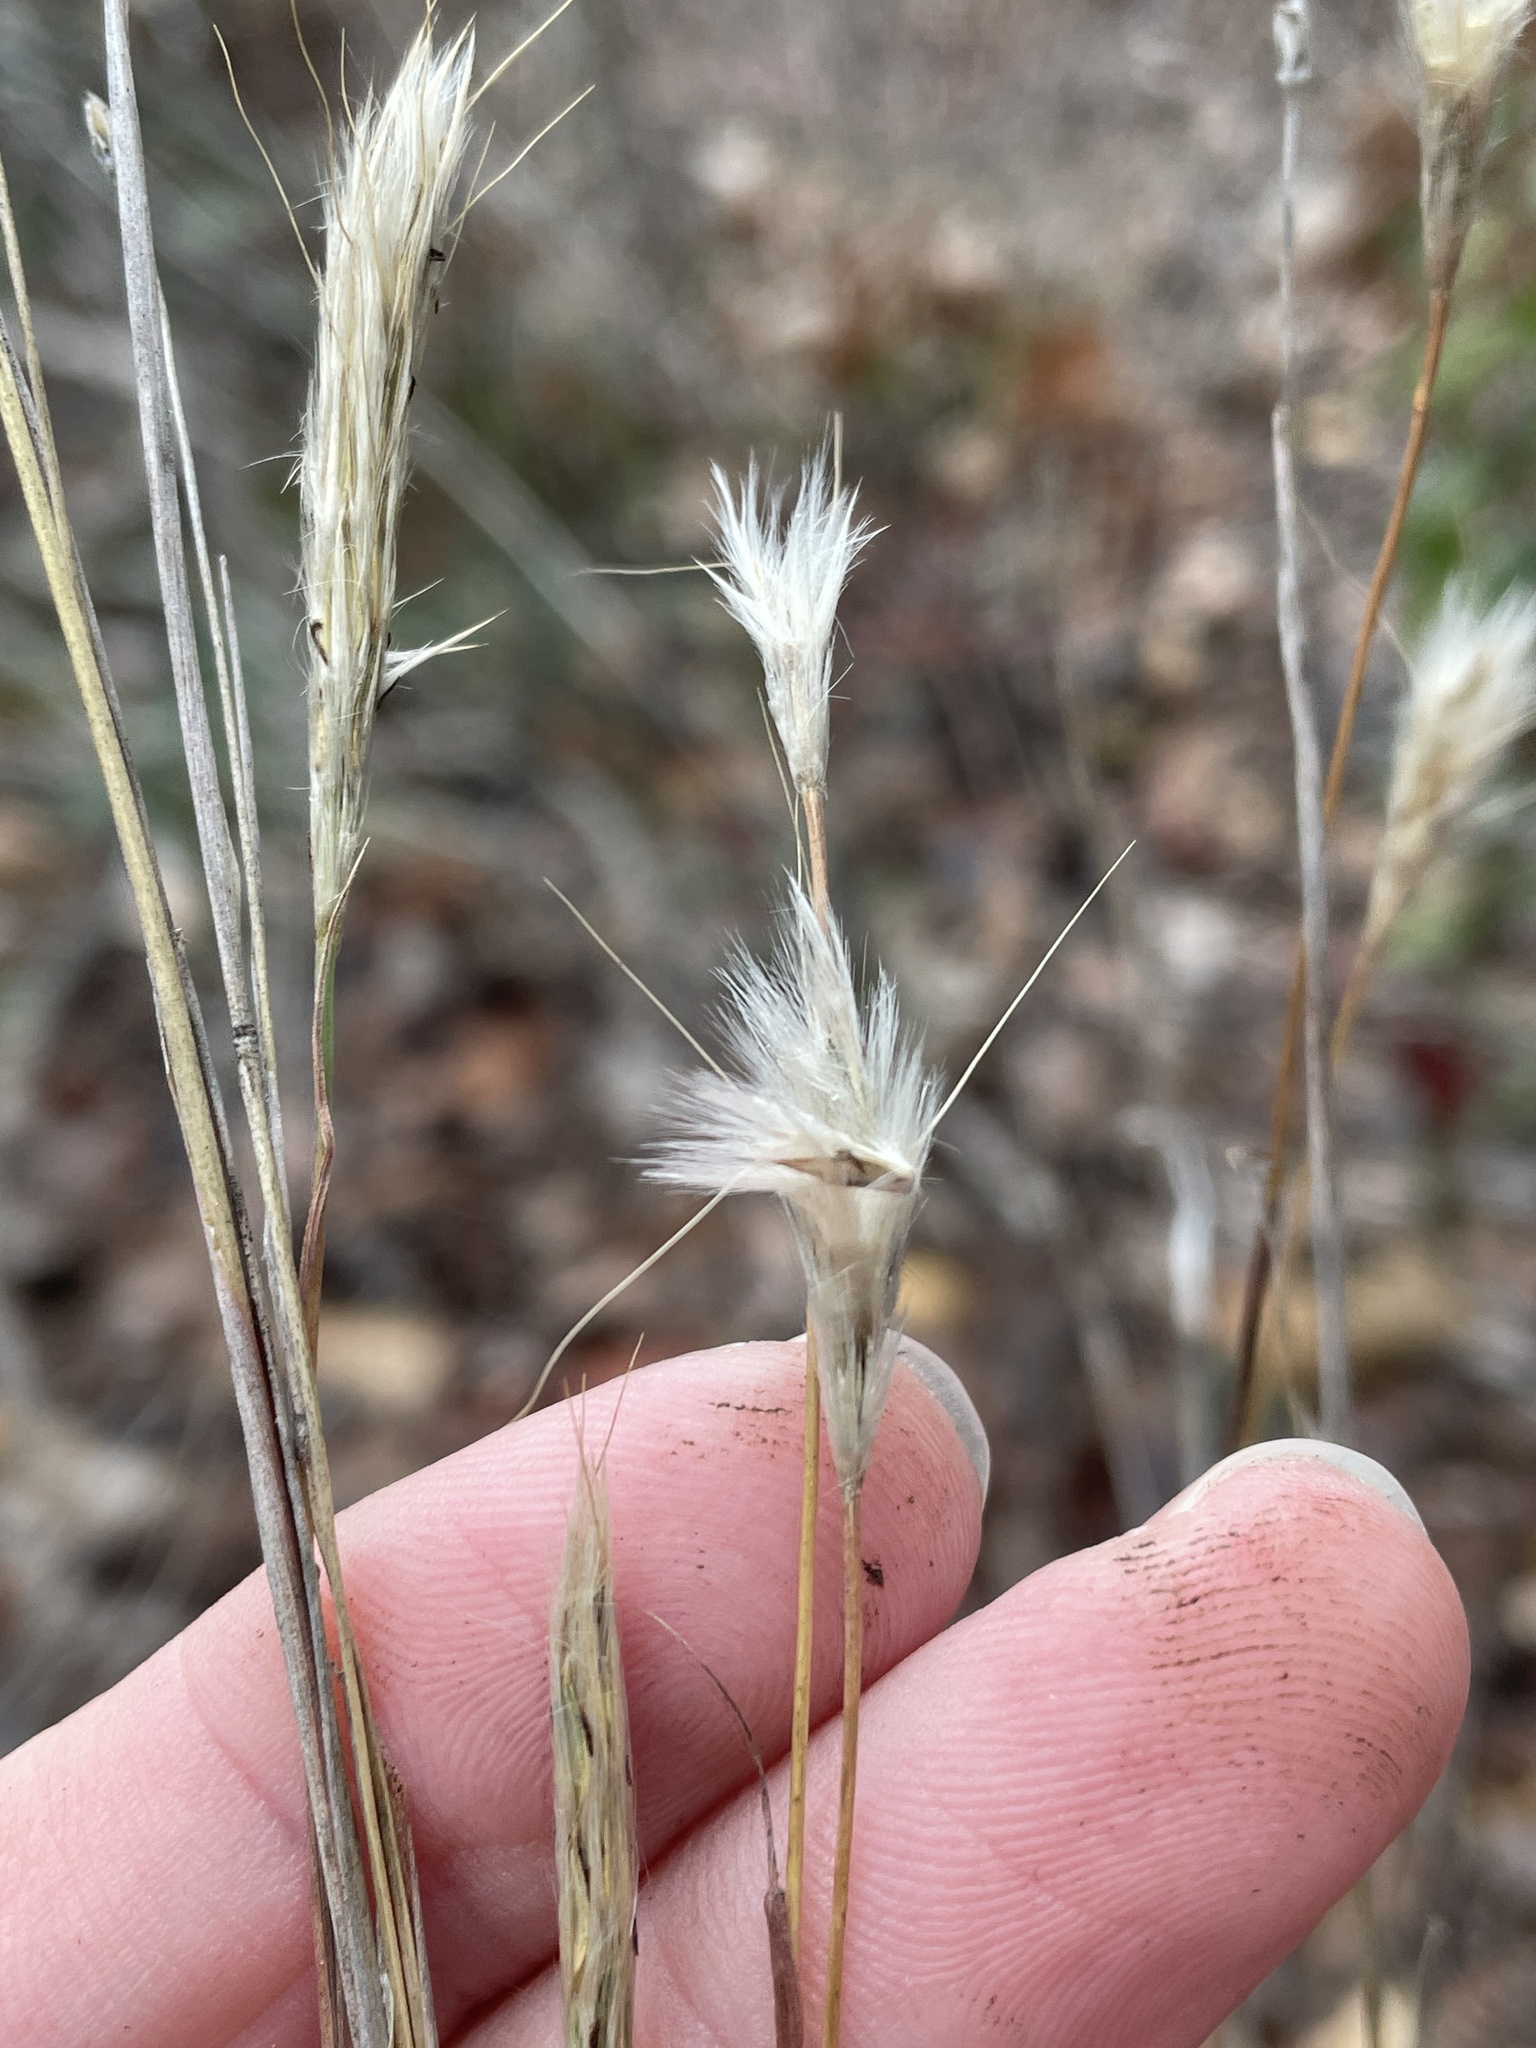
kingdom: Plantae
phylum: Tracheophyta
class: Liliopsida
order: Poales
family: Poaceae
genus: Andropogon
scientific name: Andropogon ternarius
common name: Split bluestem
